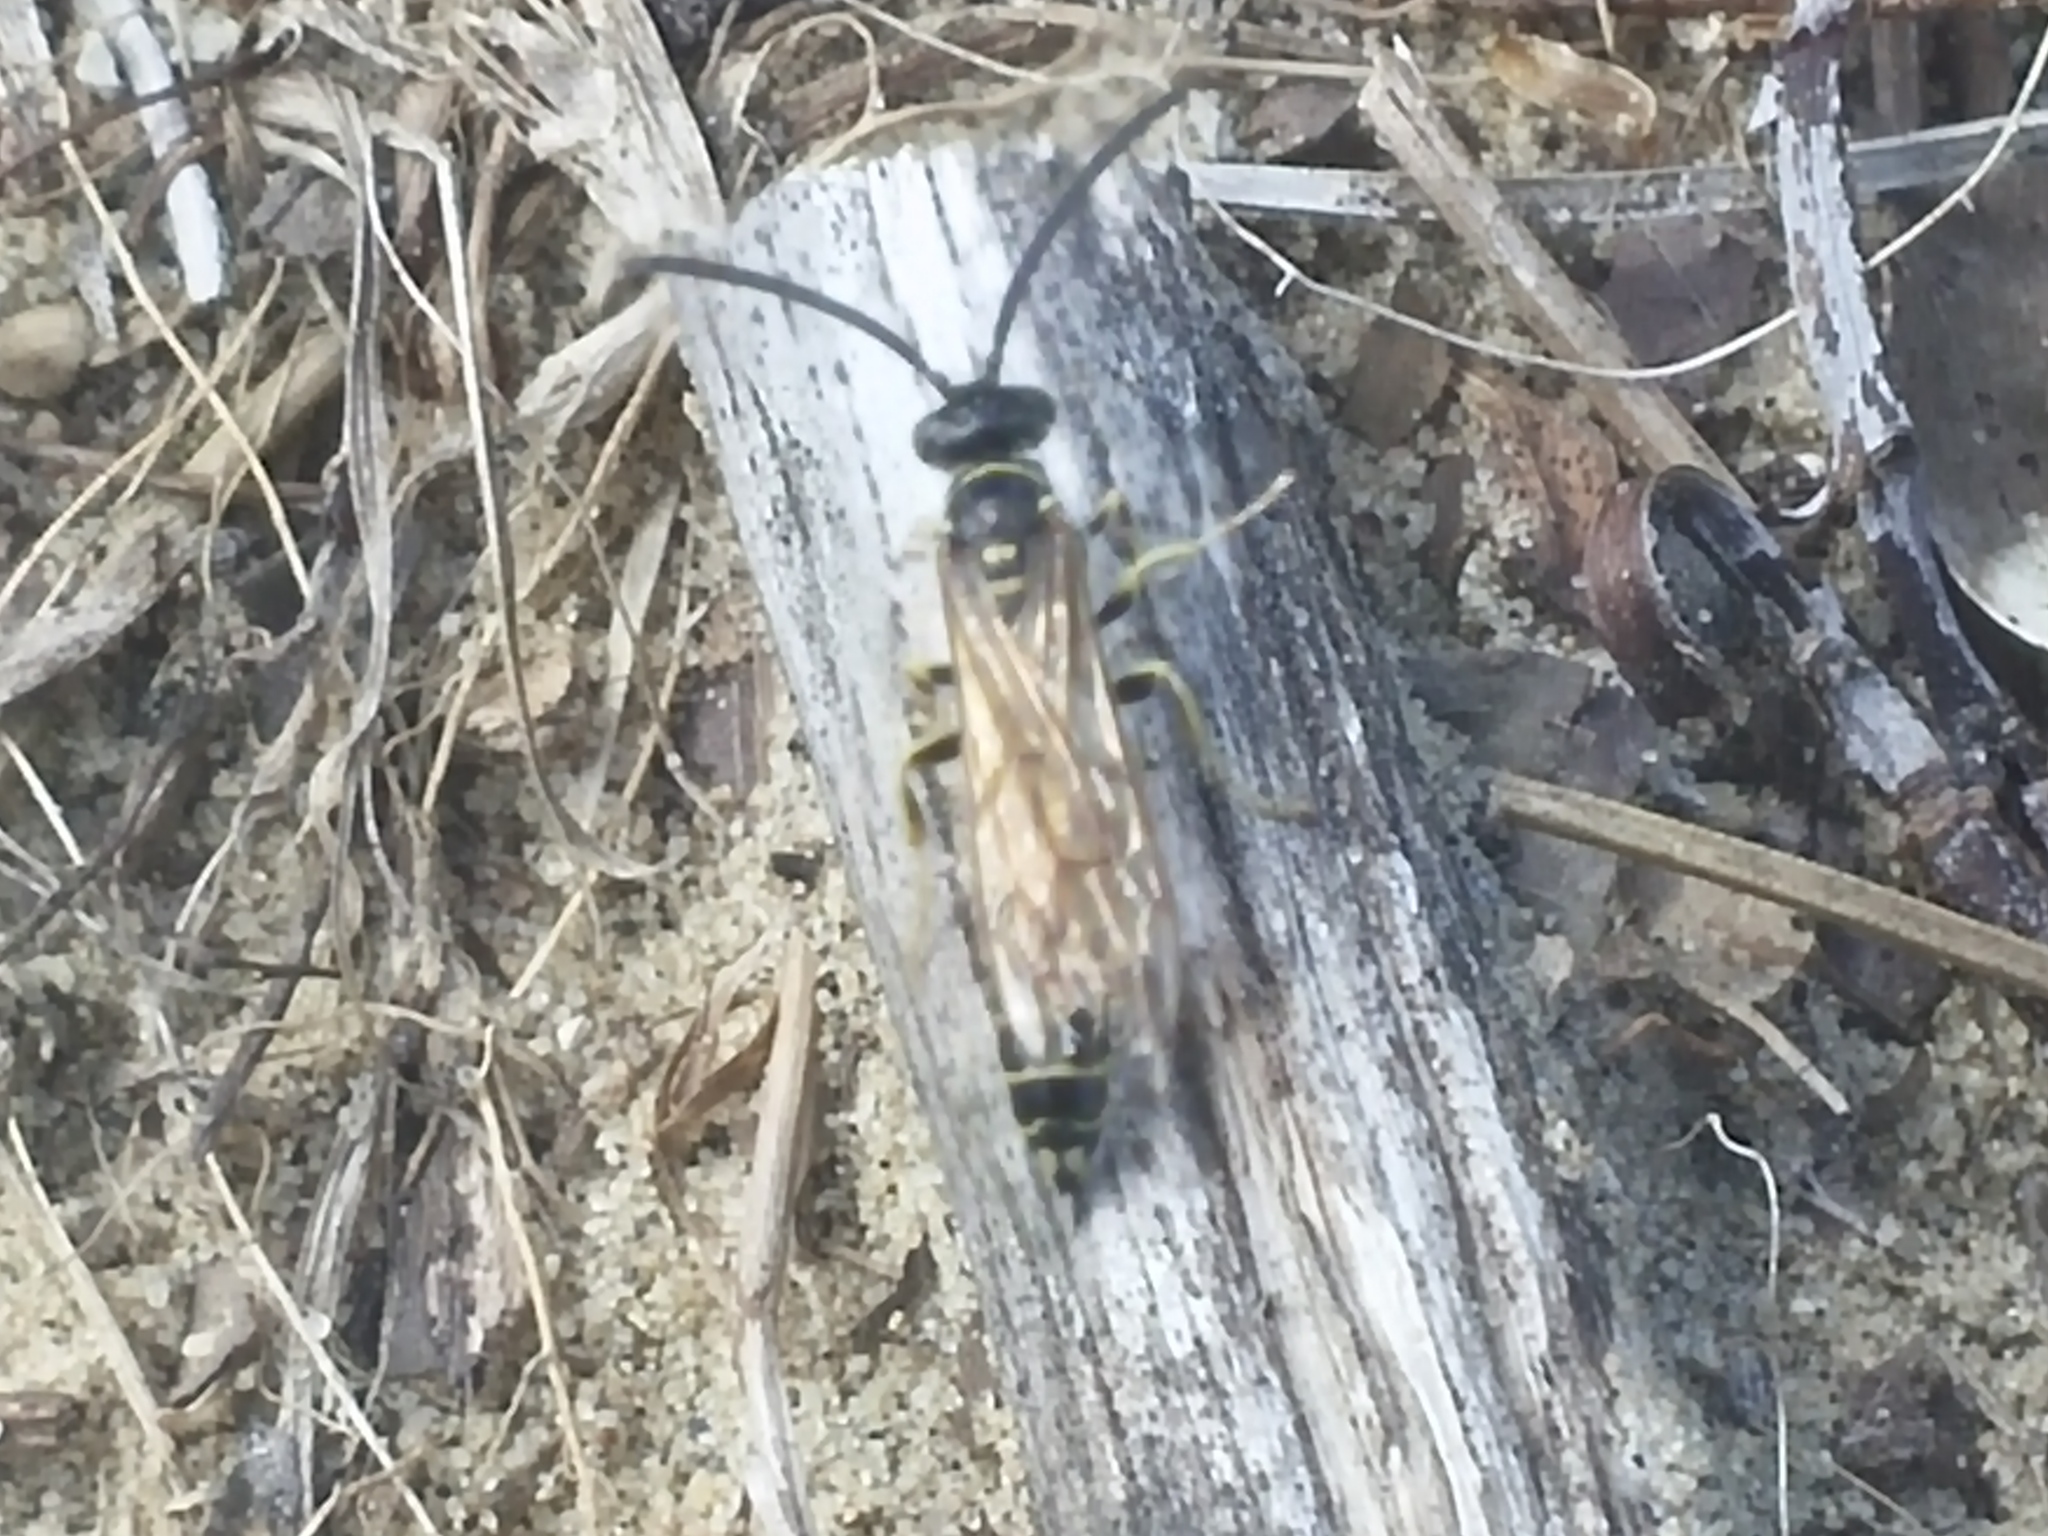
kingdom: Animalia
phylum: Arthropoda
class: Insecta
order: Hymenoptera
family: Tiphiidae
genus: Myzinum
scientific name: Myzinum quinquecinctum
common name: Five-banded thynnid wasp
